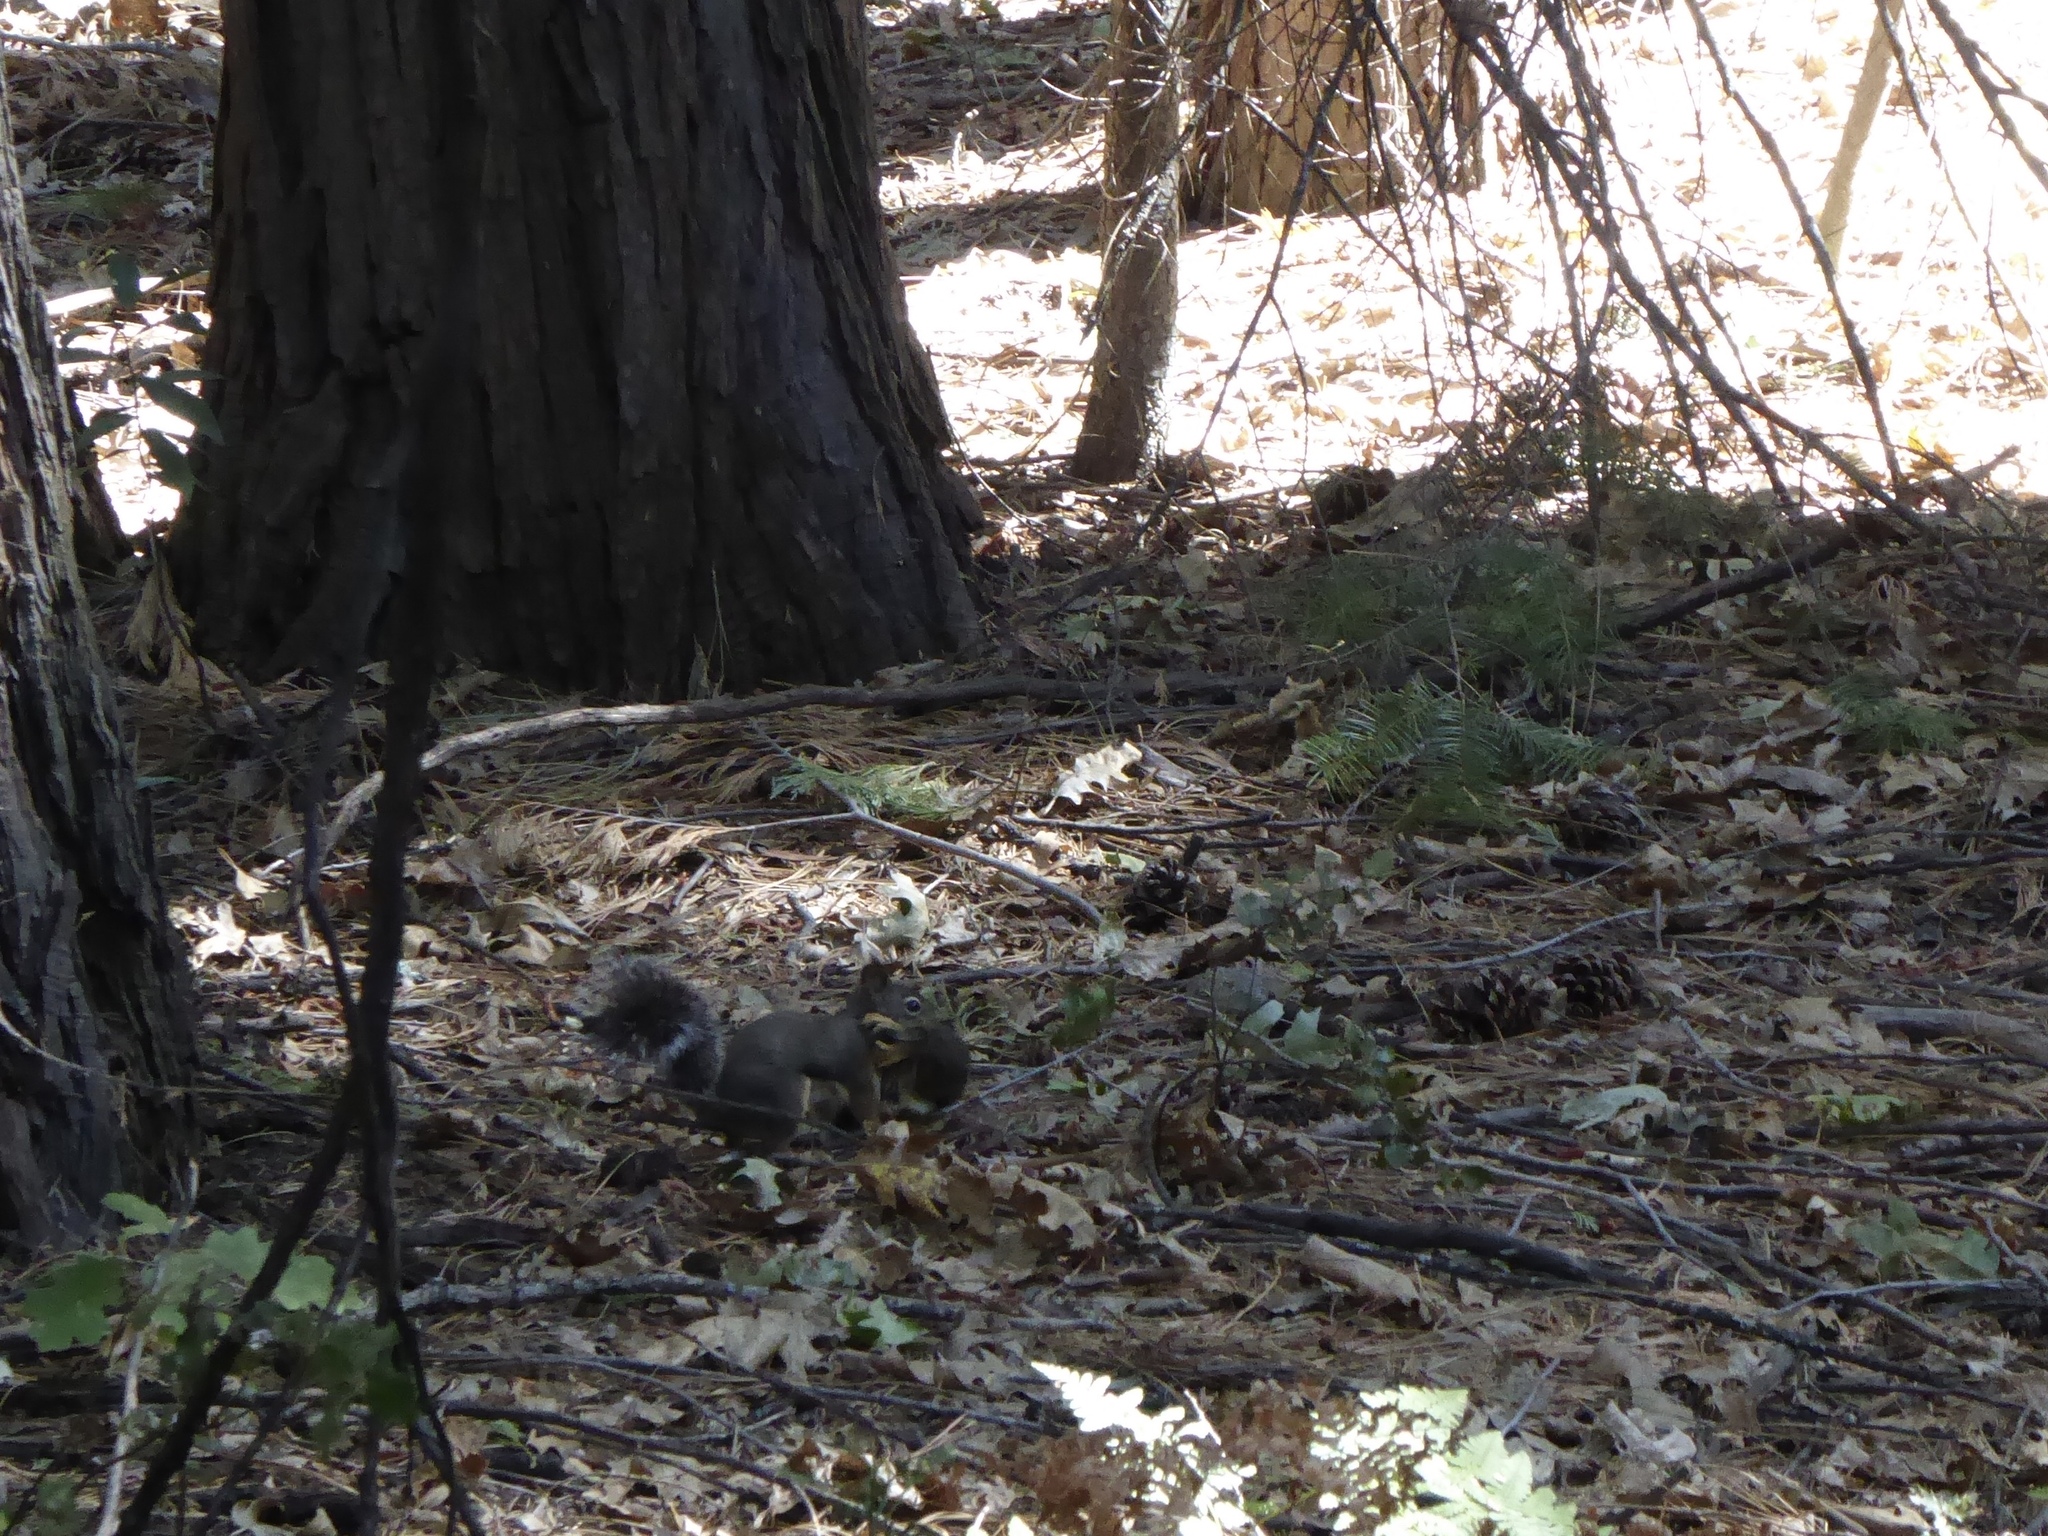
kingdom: Animalia
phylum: Chordata
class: Mammalia
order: Rodentia
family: Sciuridae
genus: Tamiasciurus
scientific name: Tamiasciurus douglasii
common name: Douglas's squirrel
